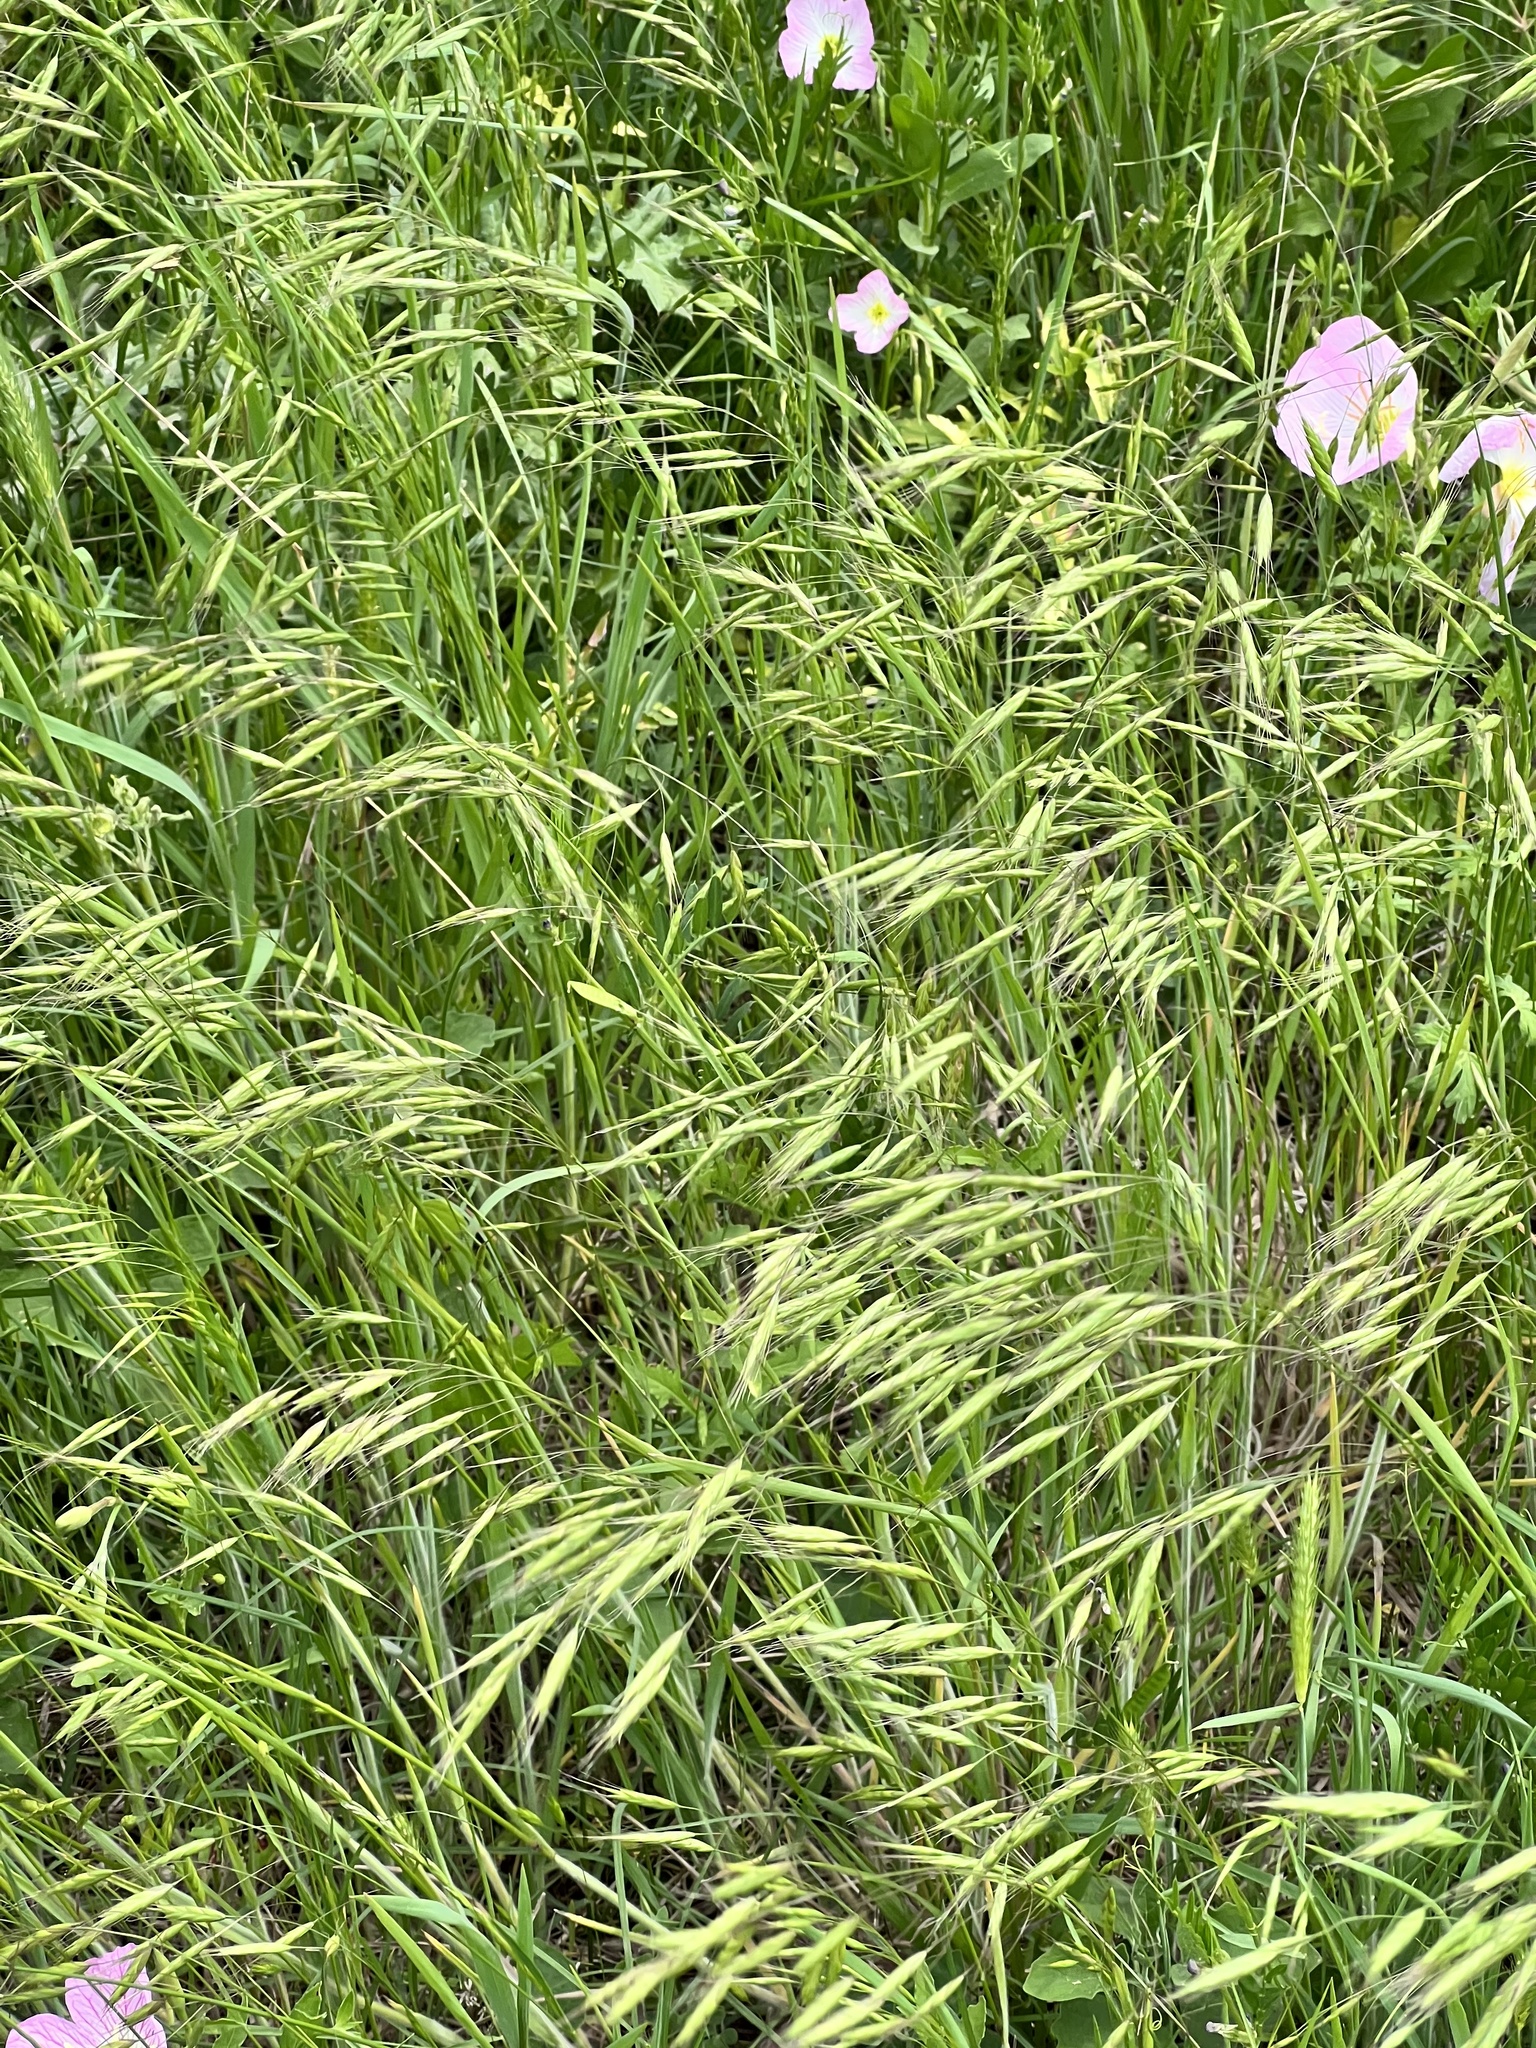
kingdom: Plantae
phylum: Tracheophyta
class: Liliopsida
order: Poales
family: Poaceae
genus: Bromus
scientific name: Bromus japonicus
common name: Japanese brome
